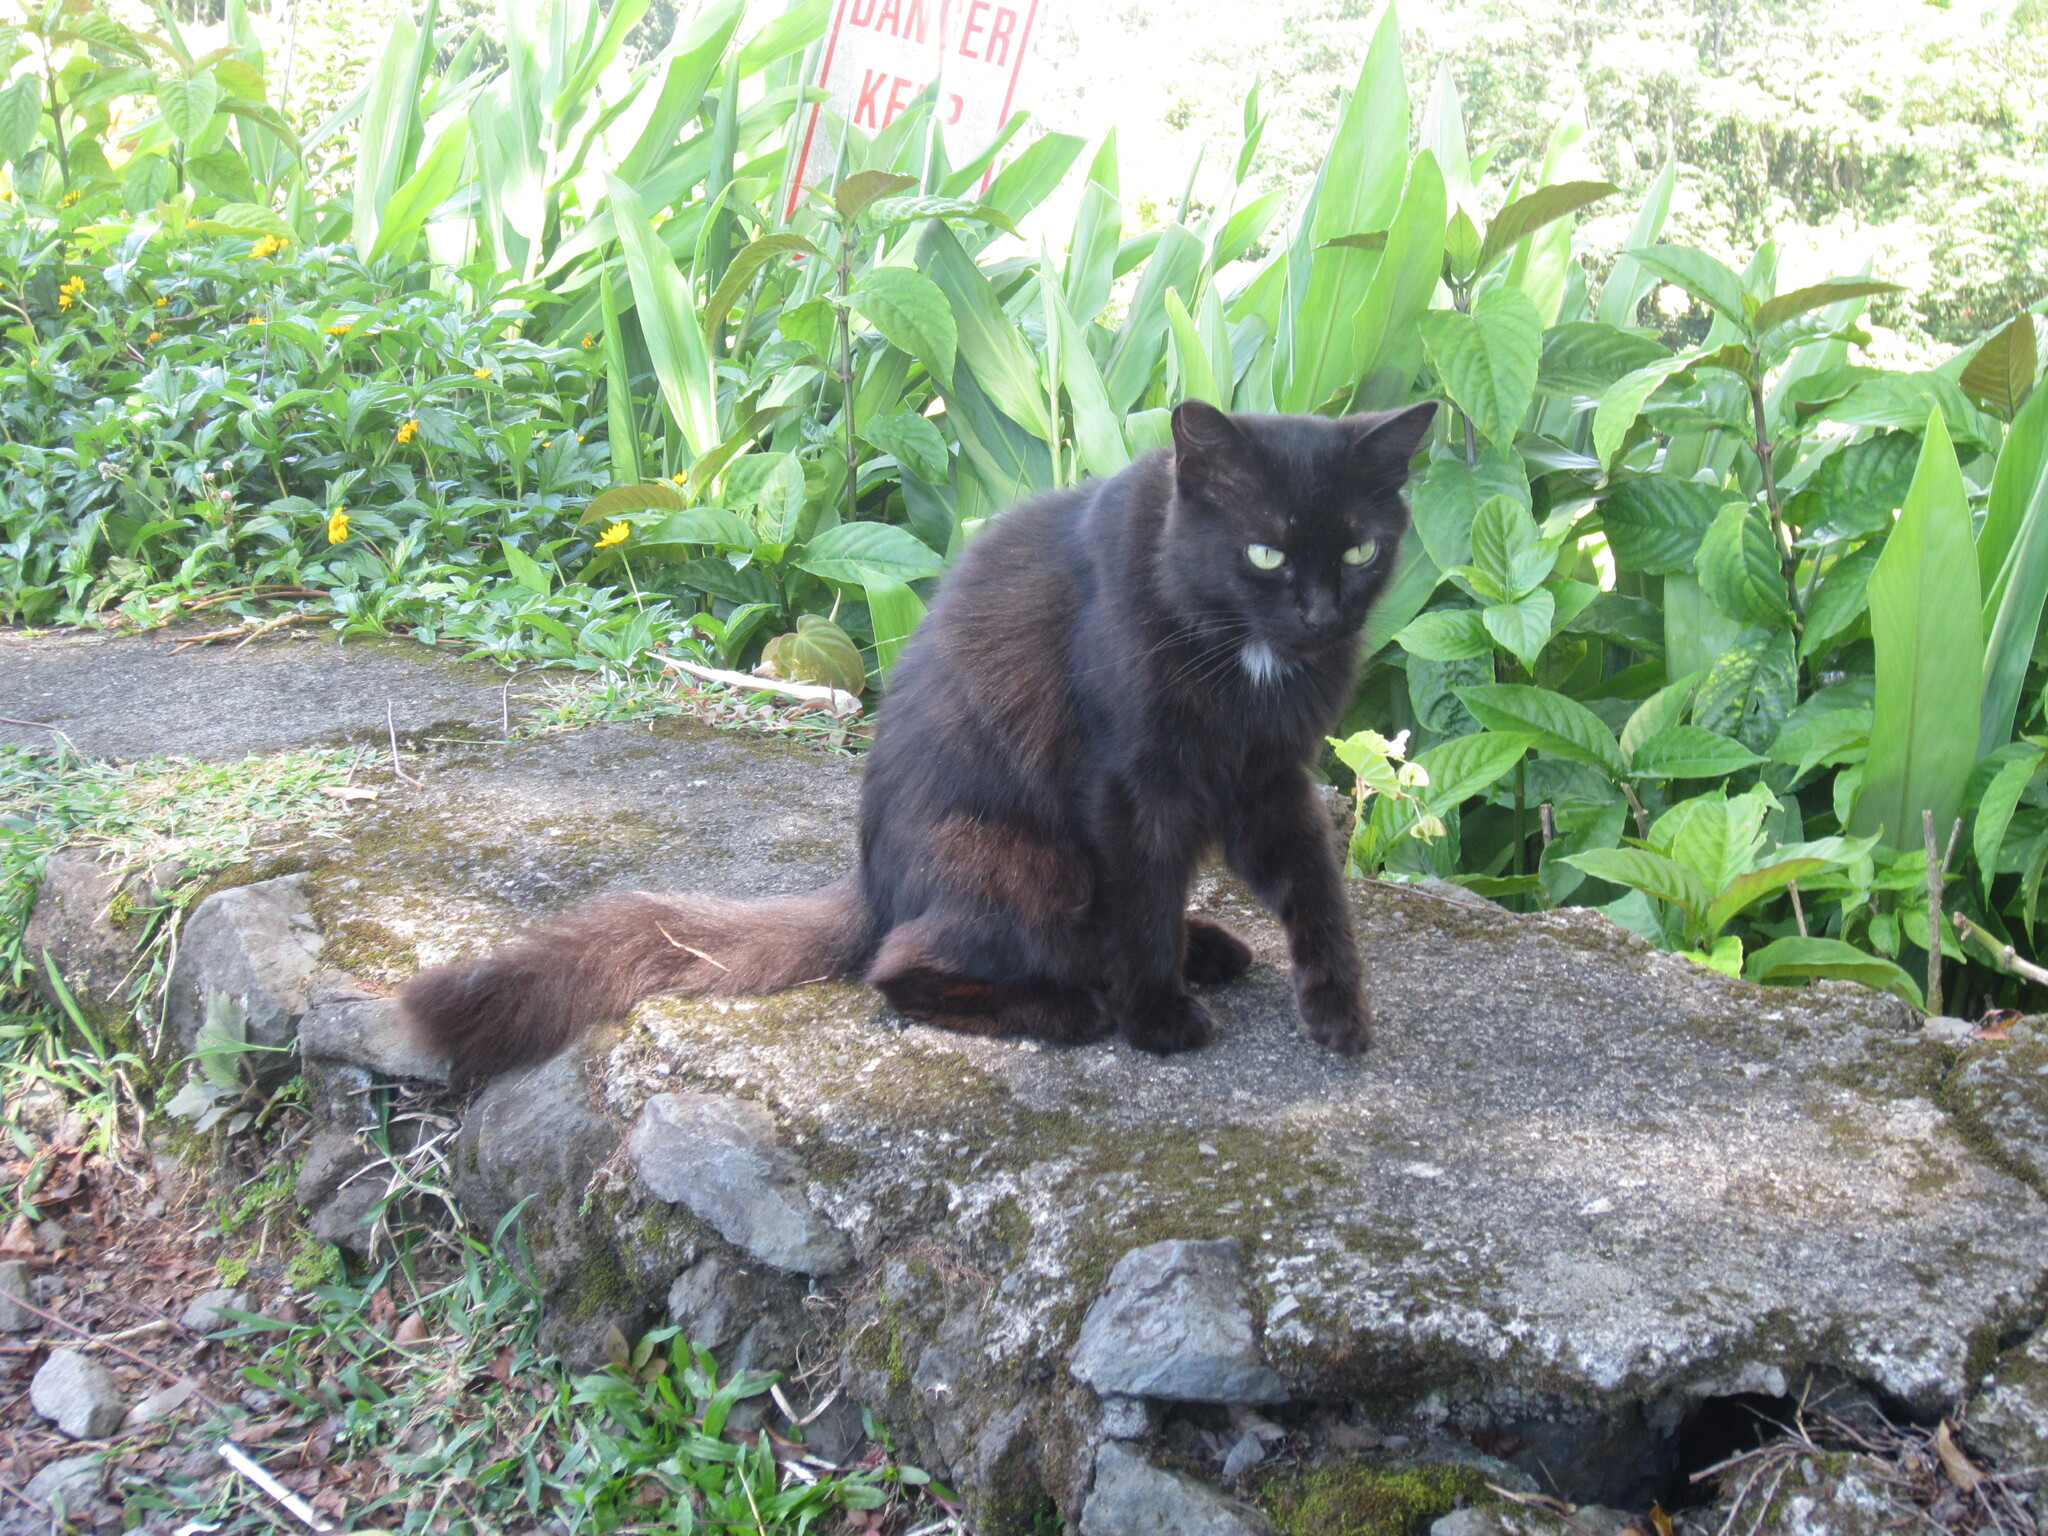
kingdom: Animalia
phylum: Chordata
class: Mammalia
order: Carnivora
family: Felidae
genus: Felis
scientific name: Felis catus
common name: Domestic cat
